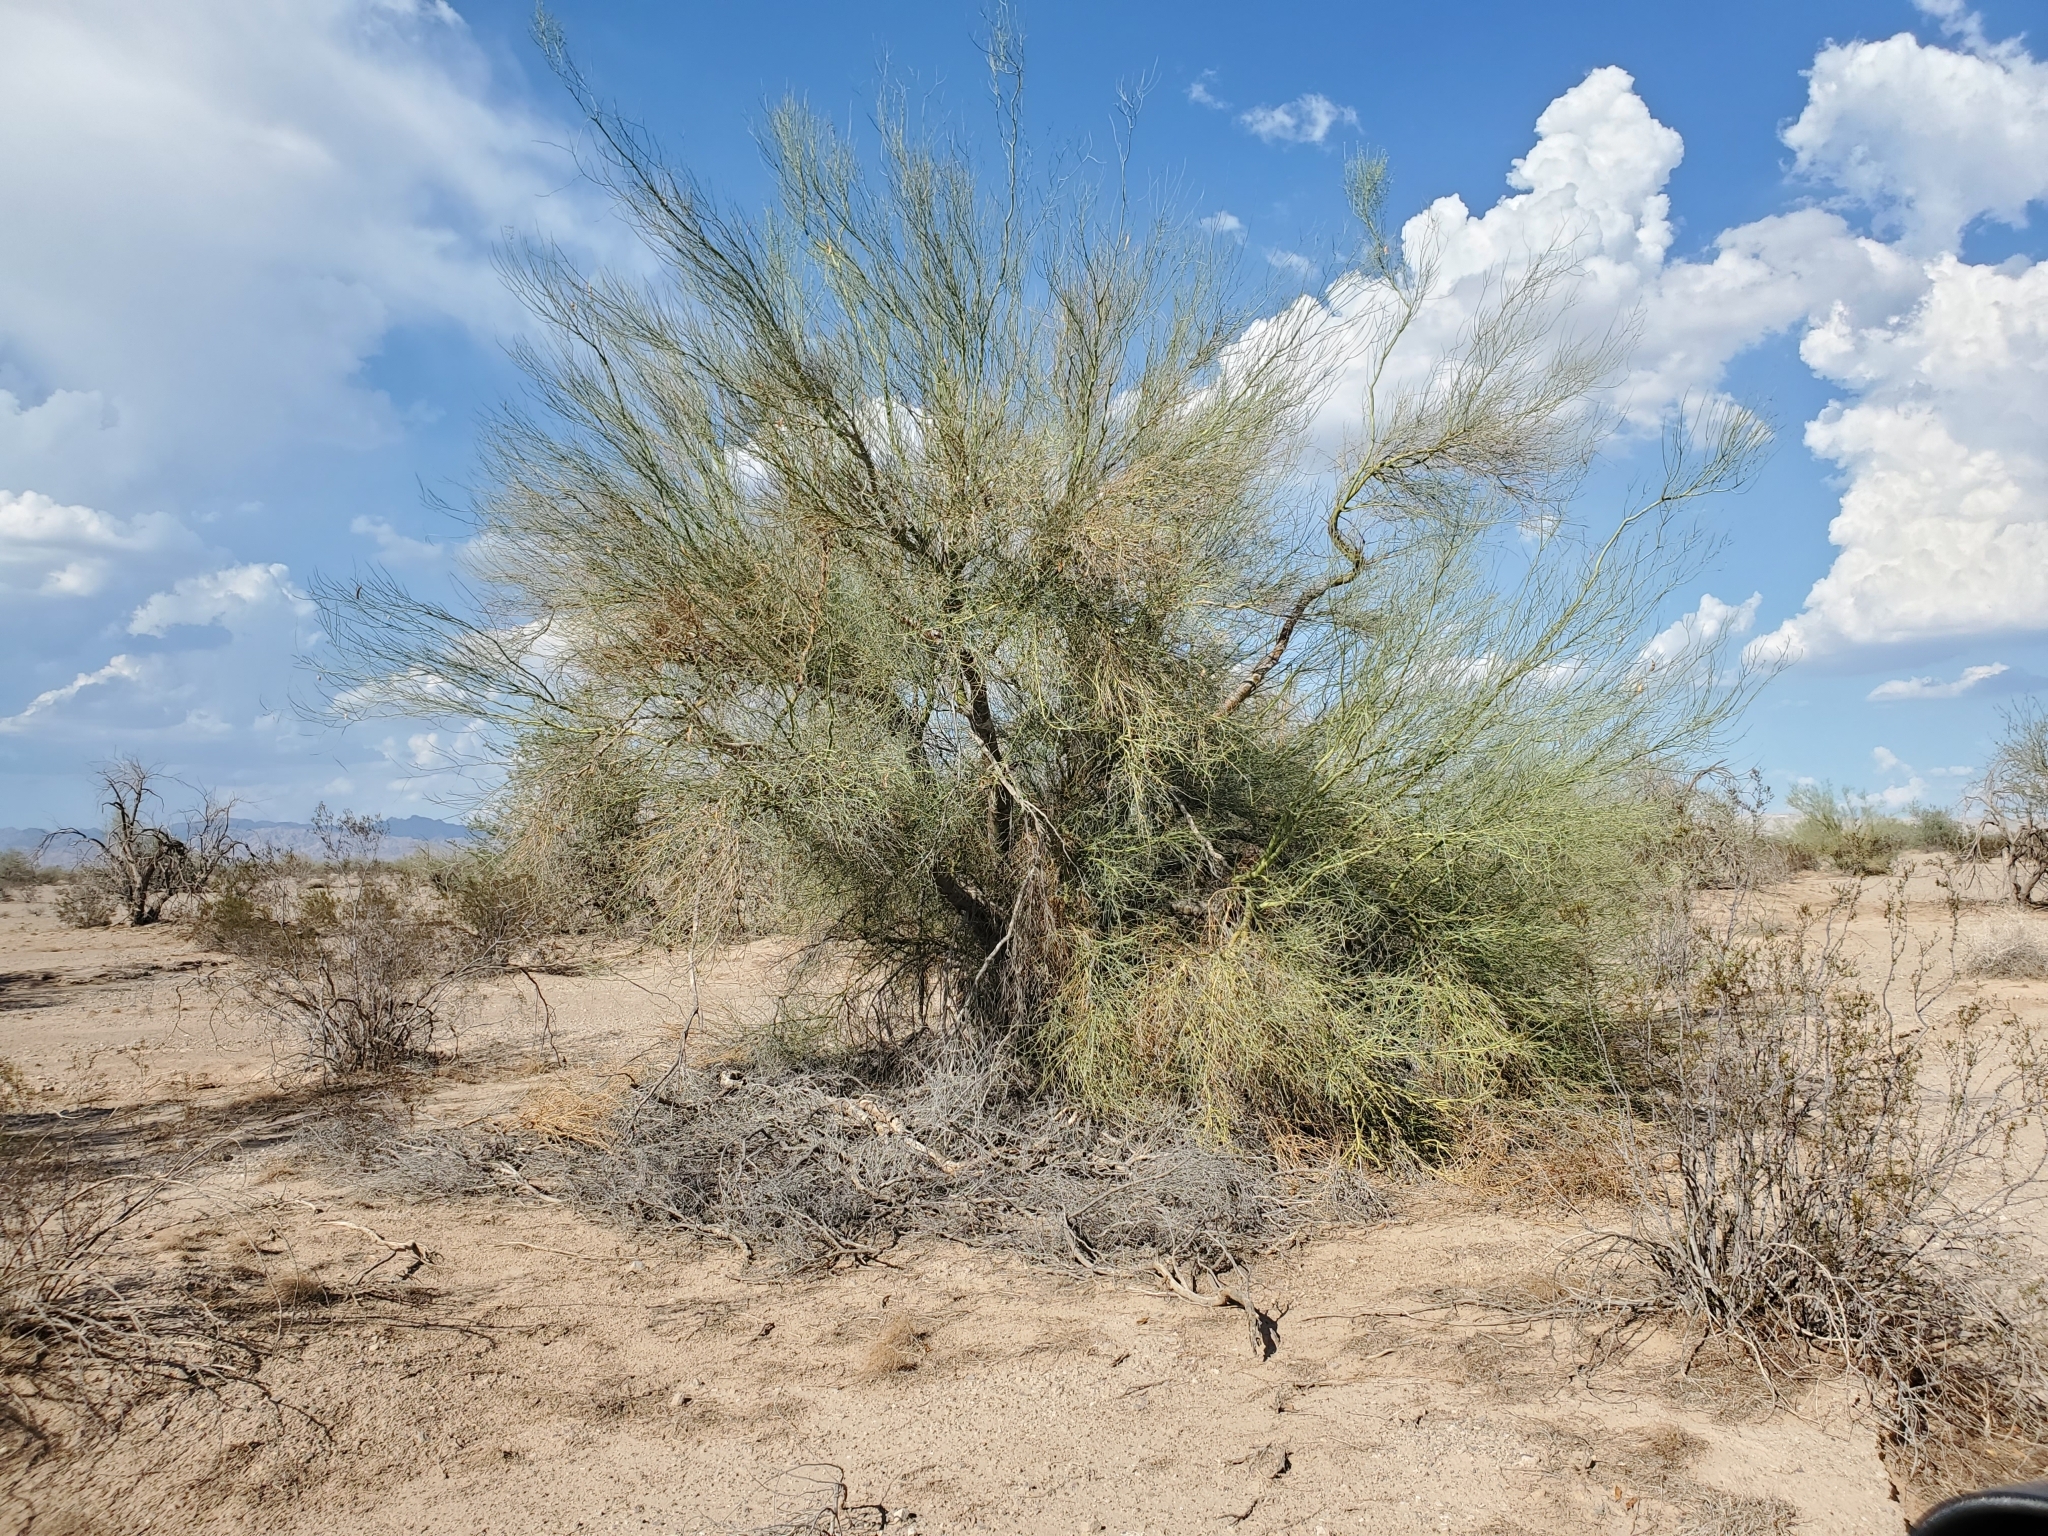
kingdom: Plantae
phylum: Tracheophyta
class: Magnoliopsida
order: Fabales
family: Fabaceae
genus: Parkinsonia
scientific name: Parkinsonia florida
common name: Blue paloverde
